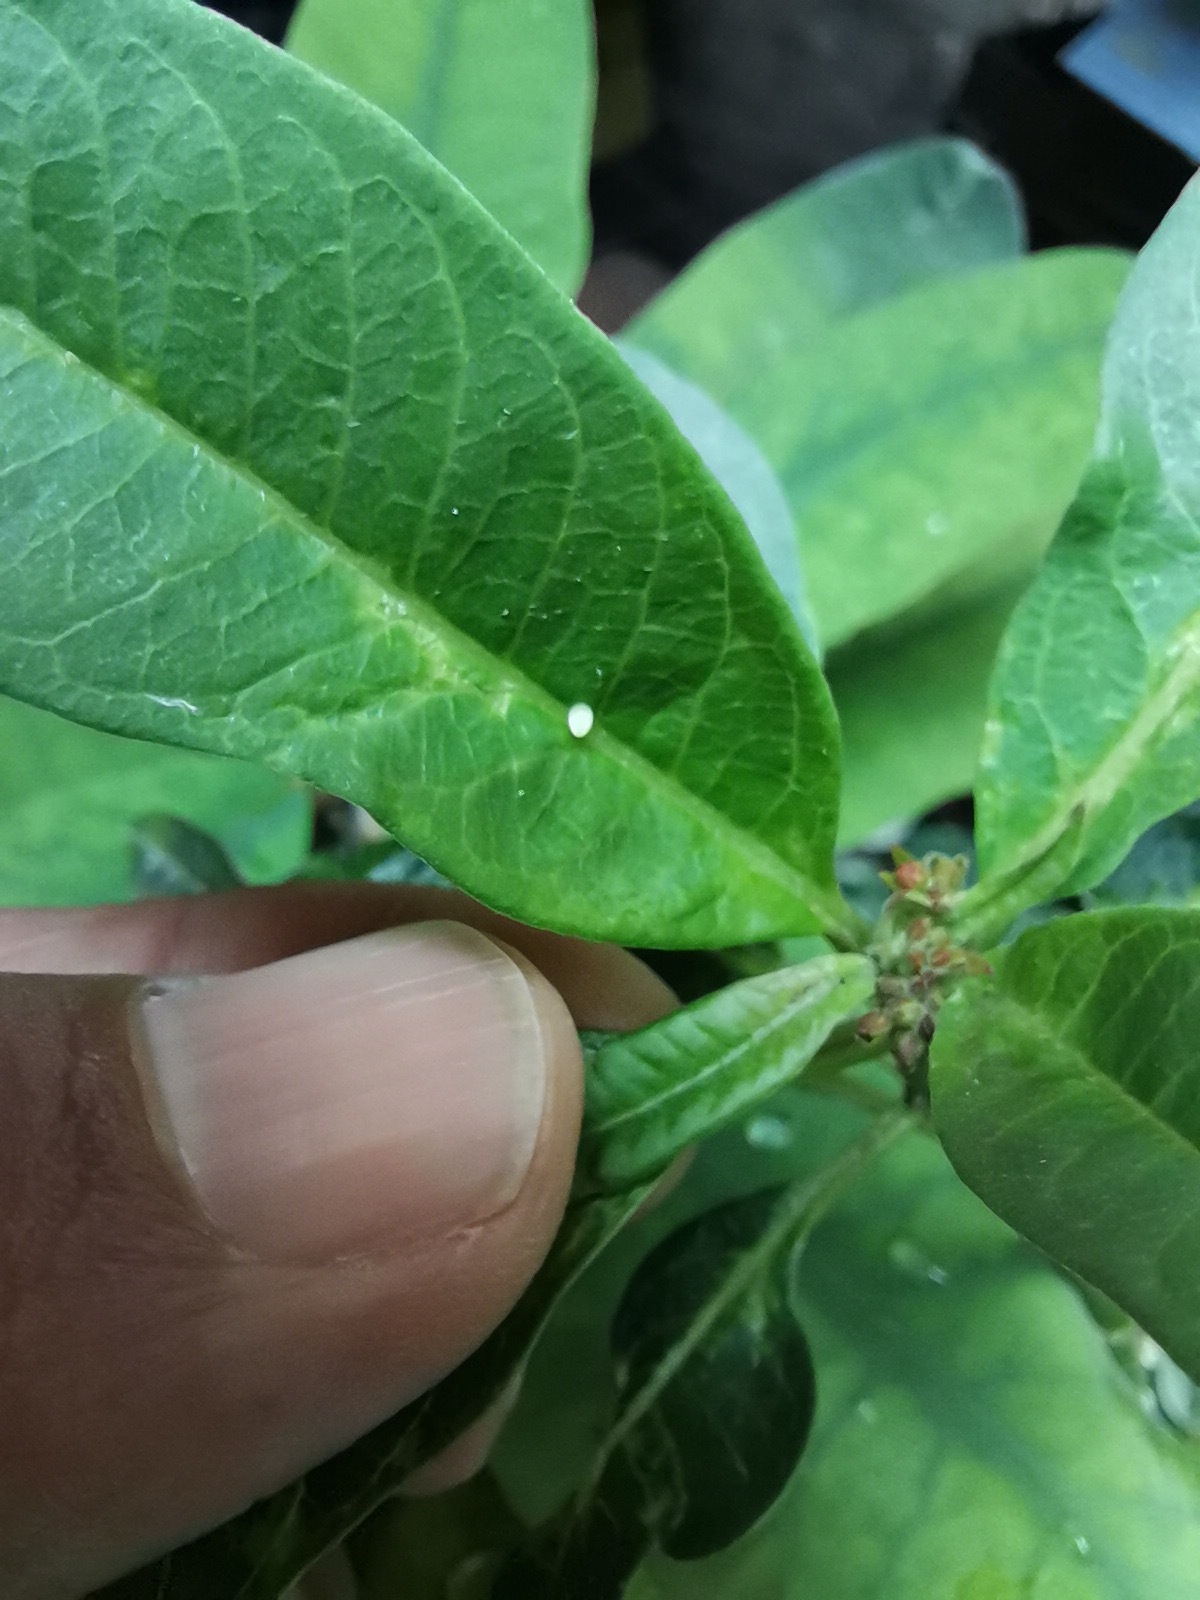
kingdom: Animalia
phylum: Arthropoda
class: Insecta
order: Lepidoptera
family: Nymphalidae
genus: Danaus
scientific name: Danaus plexippus
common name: Monarch
